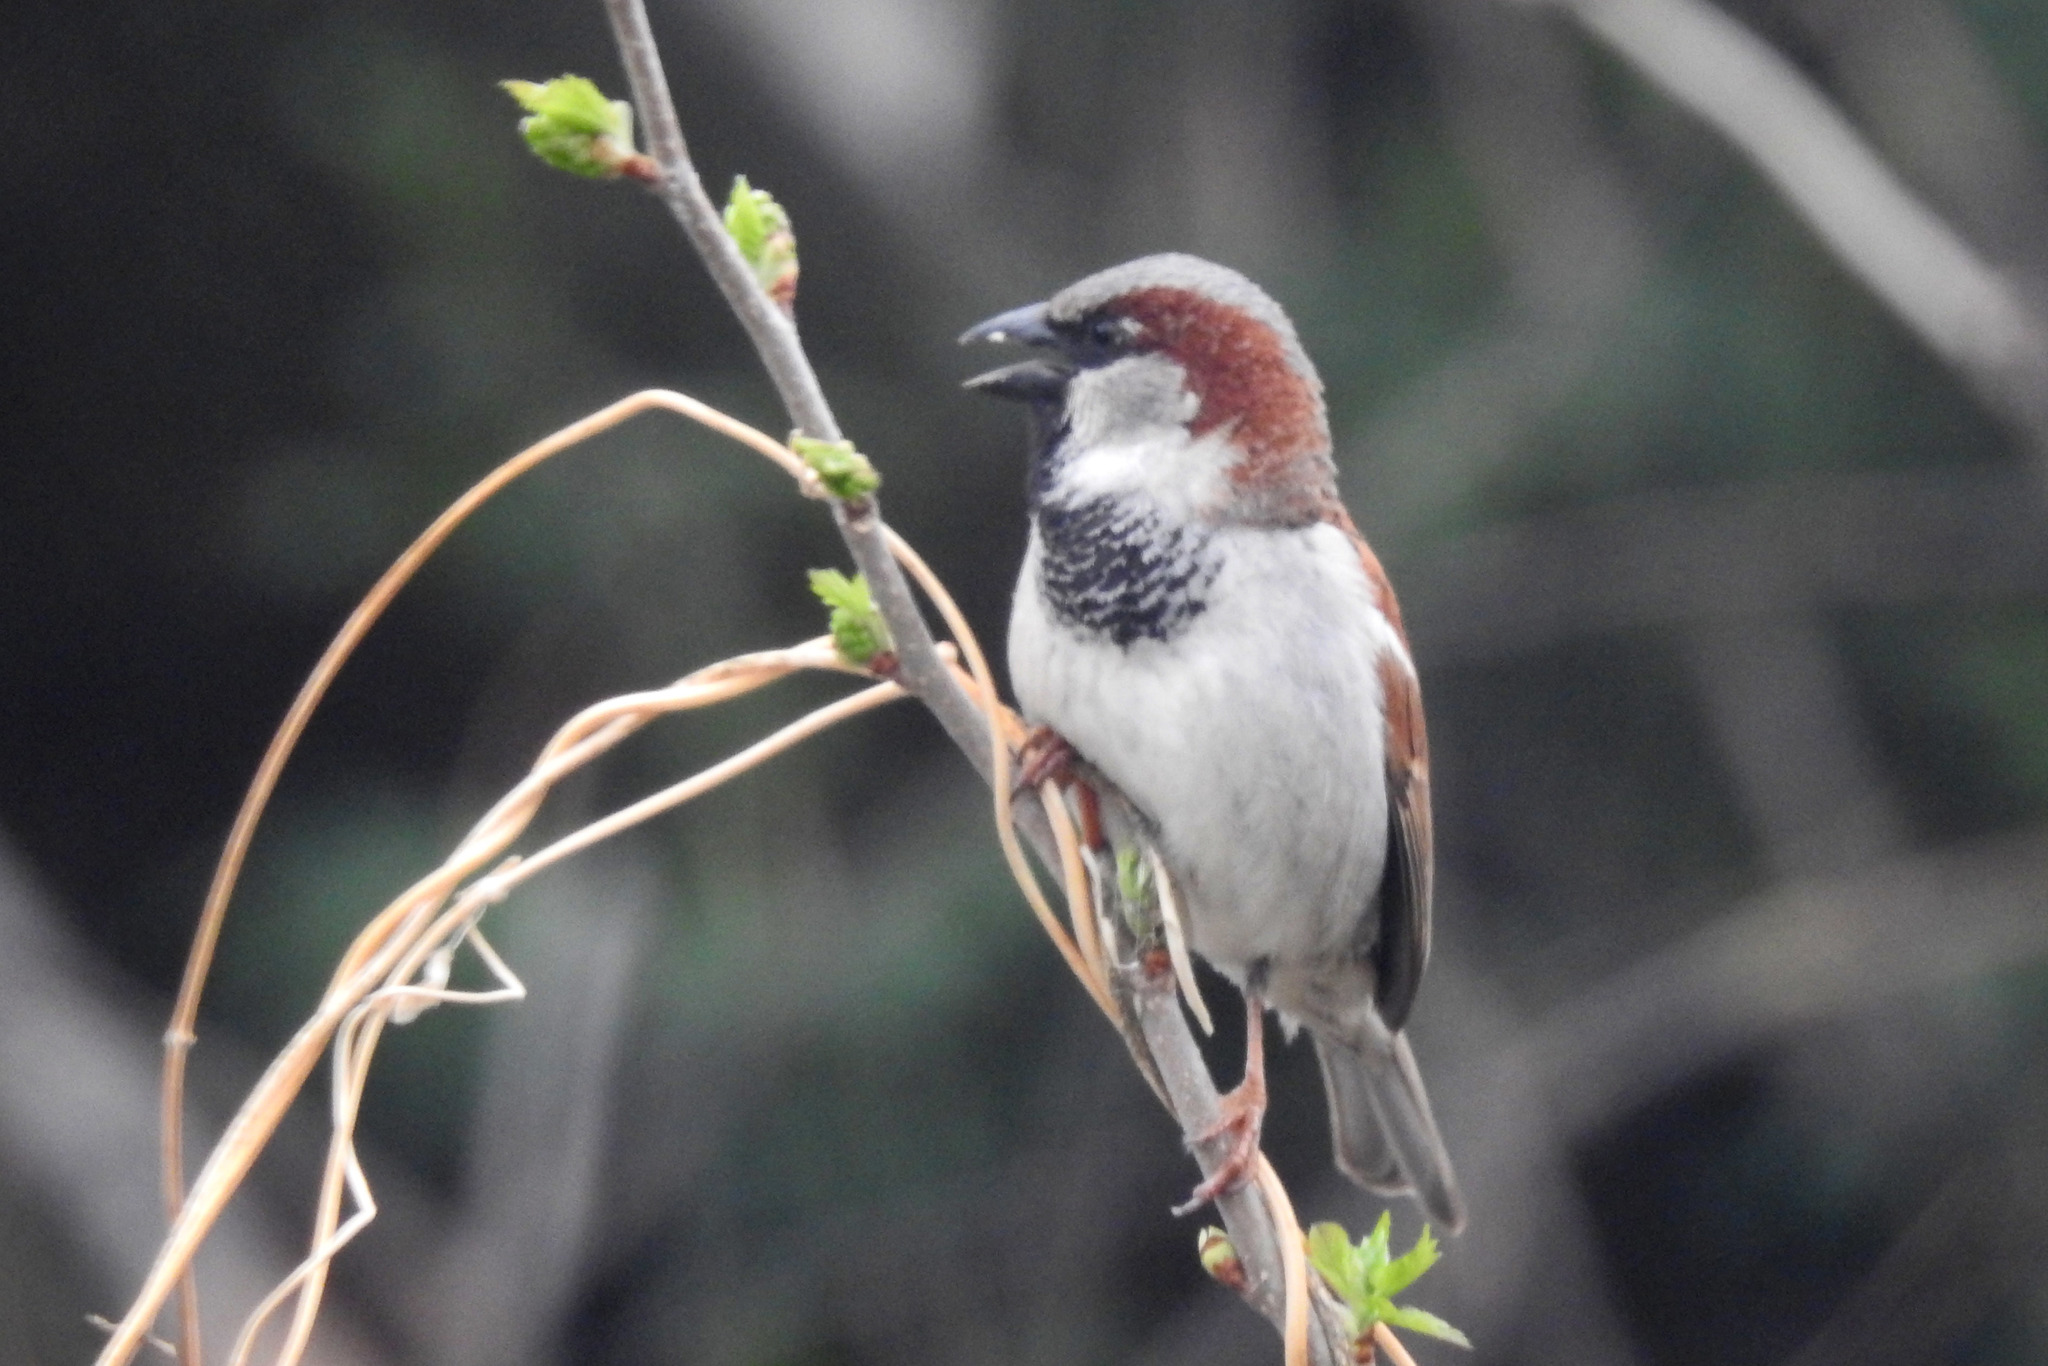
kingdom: Animalia
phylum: Chordata
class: Aves
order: Passeriformes
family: Passeridae
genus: Passer
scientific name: Passer domesticus
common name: House sparrow
